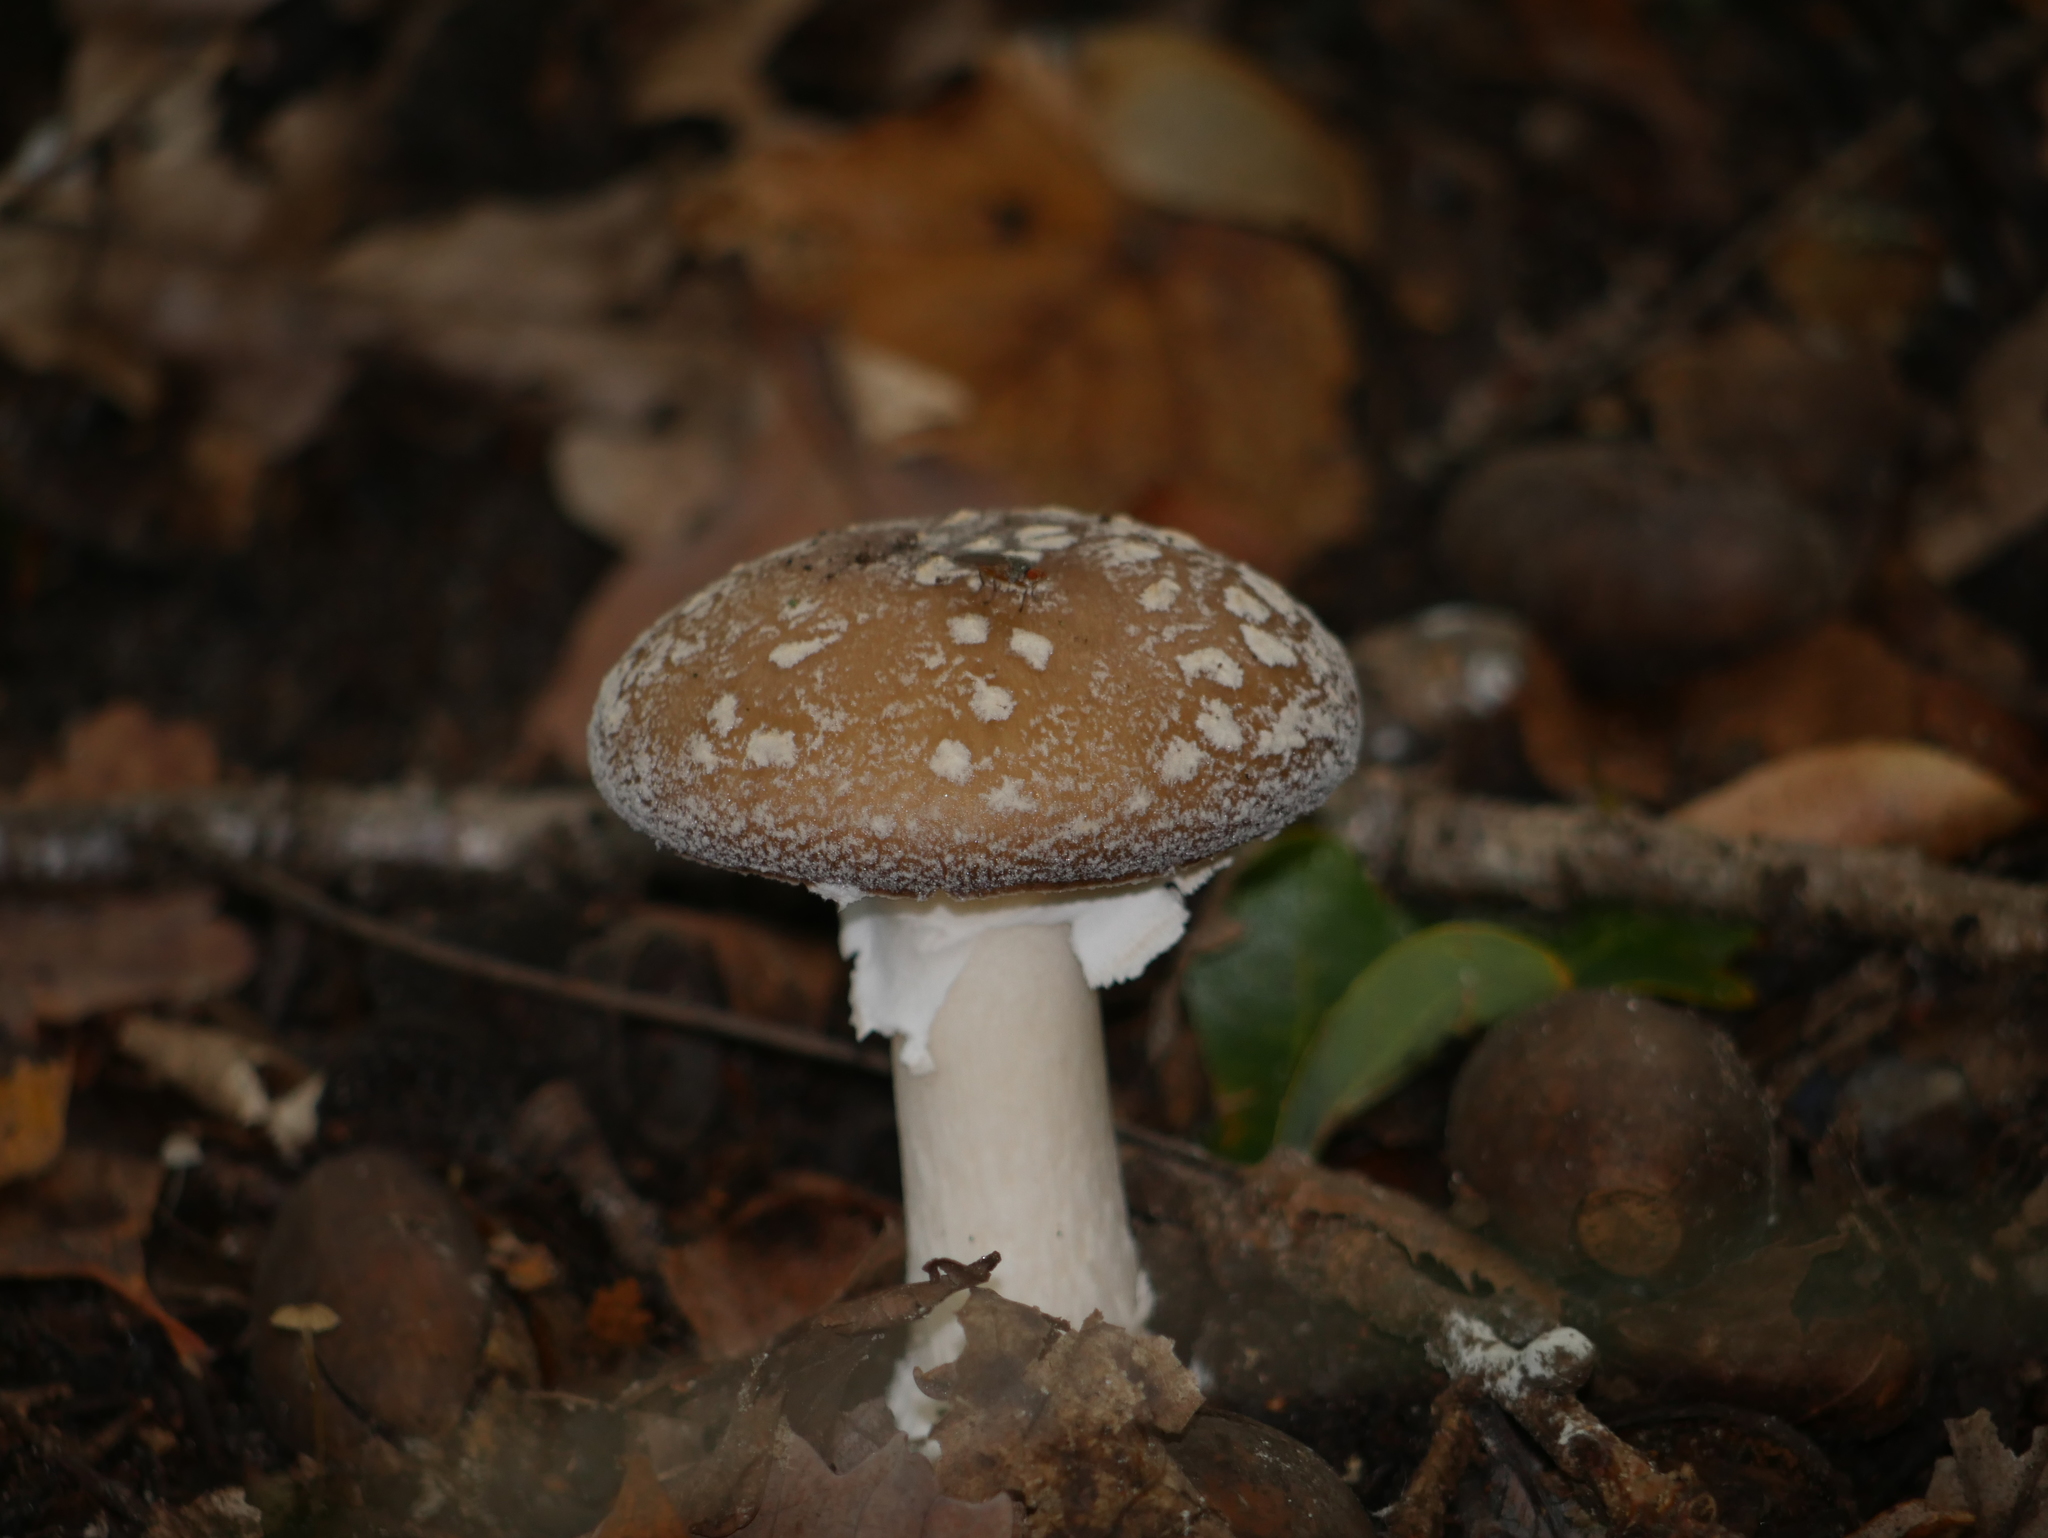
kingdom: Fungi
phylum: Basidiomycota
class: Agaricomycetes
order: Agaricales
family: Amanitaceae
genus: Amanita
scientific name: Amanita pantherina
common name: Panthercap
